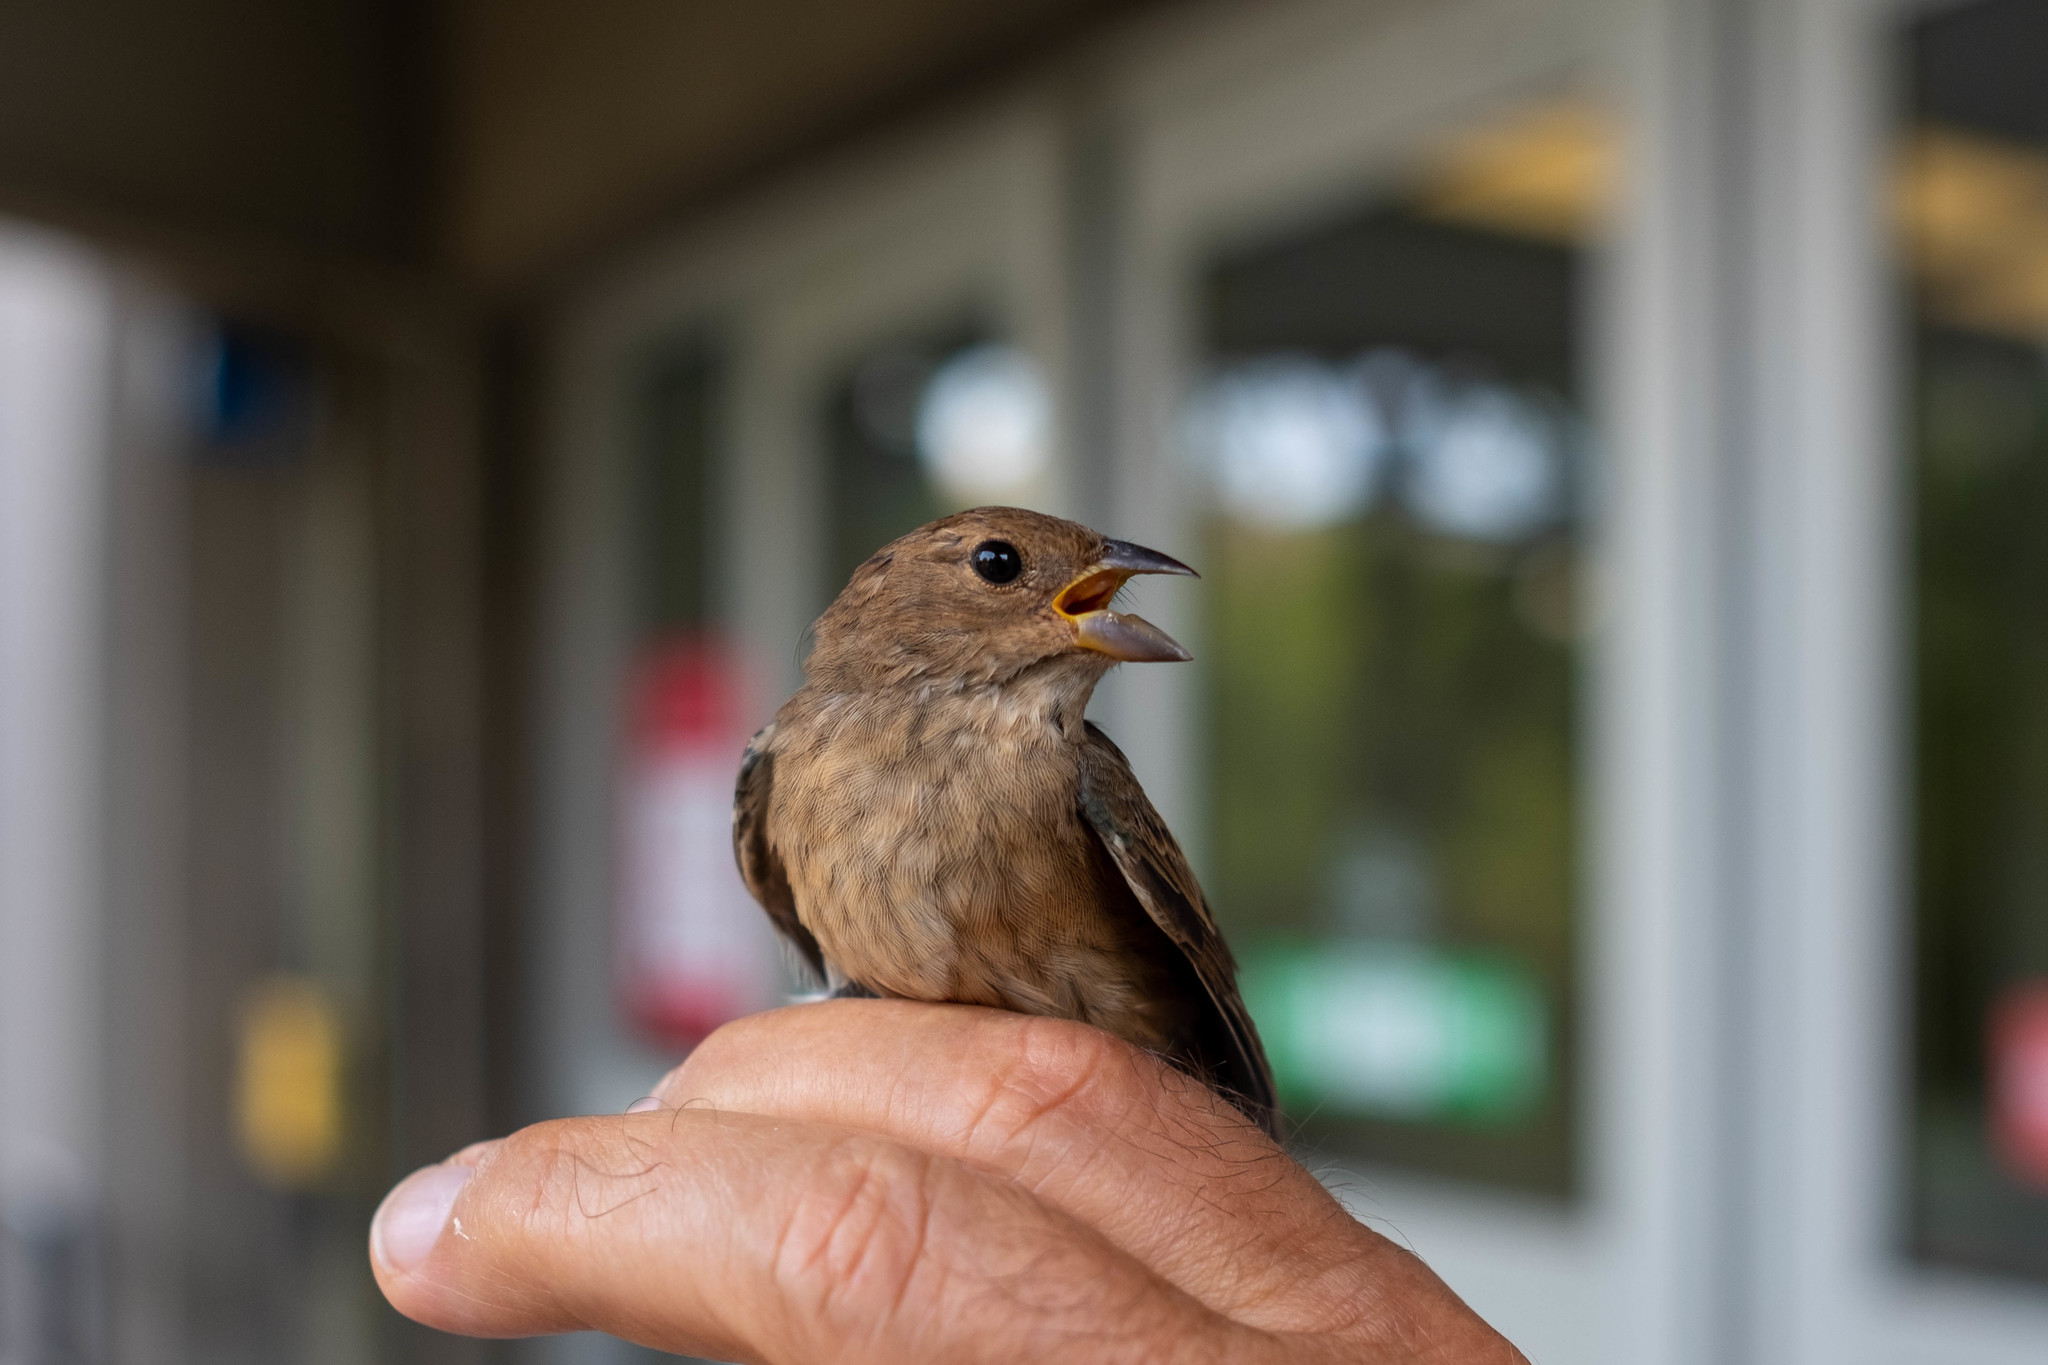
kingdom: Animalia
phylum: Chordata
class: Aves
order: Passeriformes
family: Cardinalidae
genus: Passerina
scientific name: Passerina cyanea
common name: Indigo bunting
